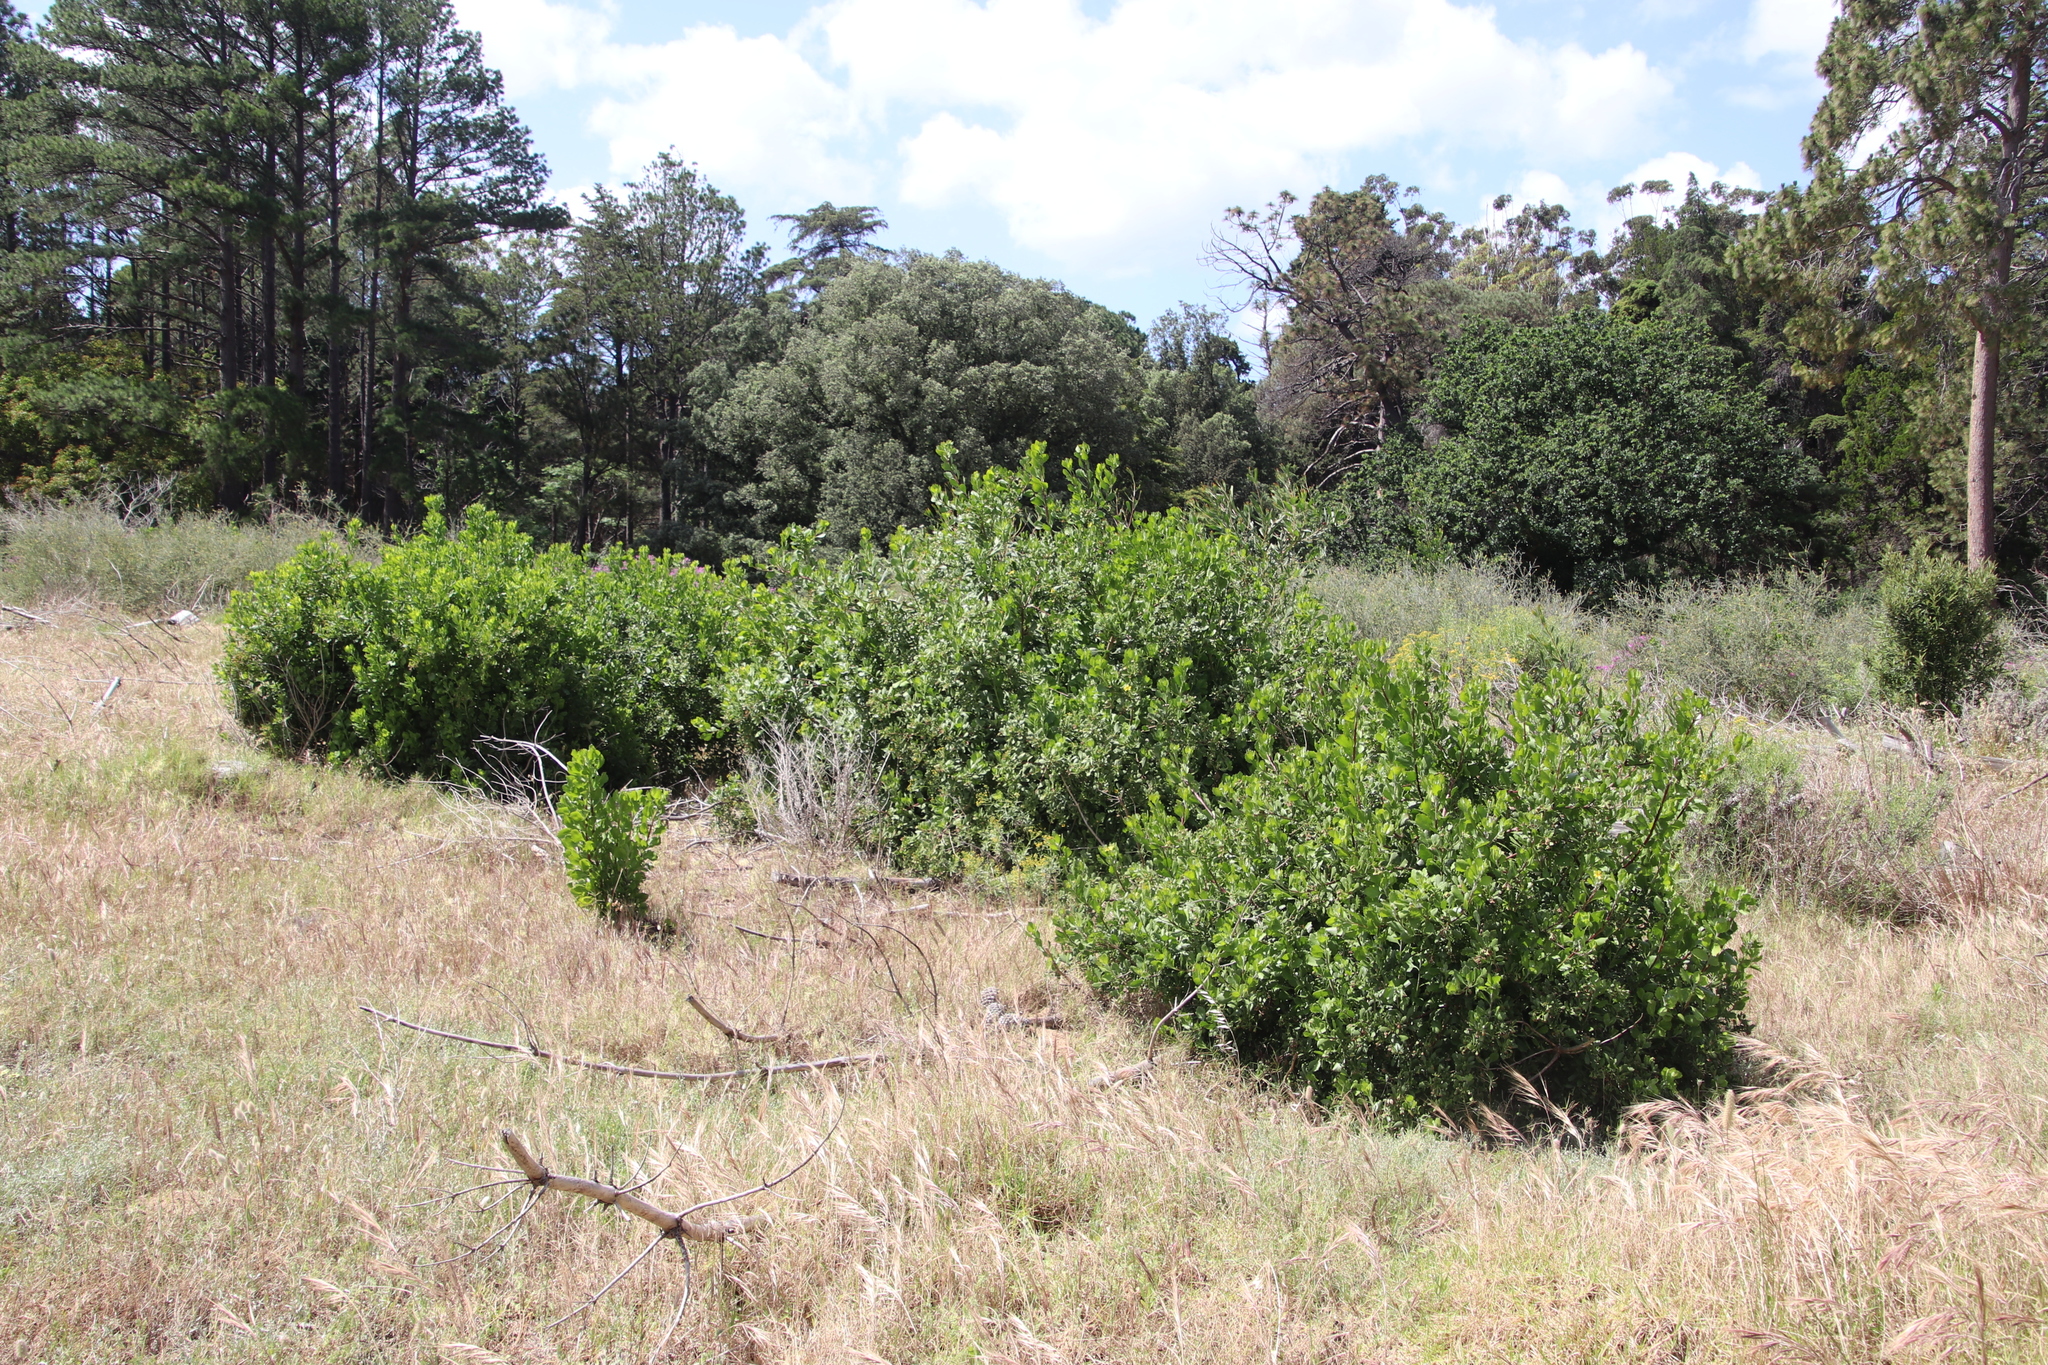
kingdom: Plantae
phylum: Tracheophyta
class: Magnoliopsida
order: Asterales
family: Asteraceae
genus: Osteospermum
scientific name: Osteospermum moniliferum
